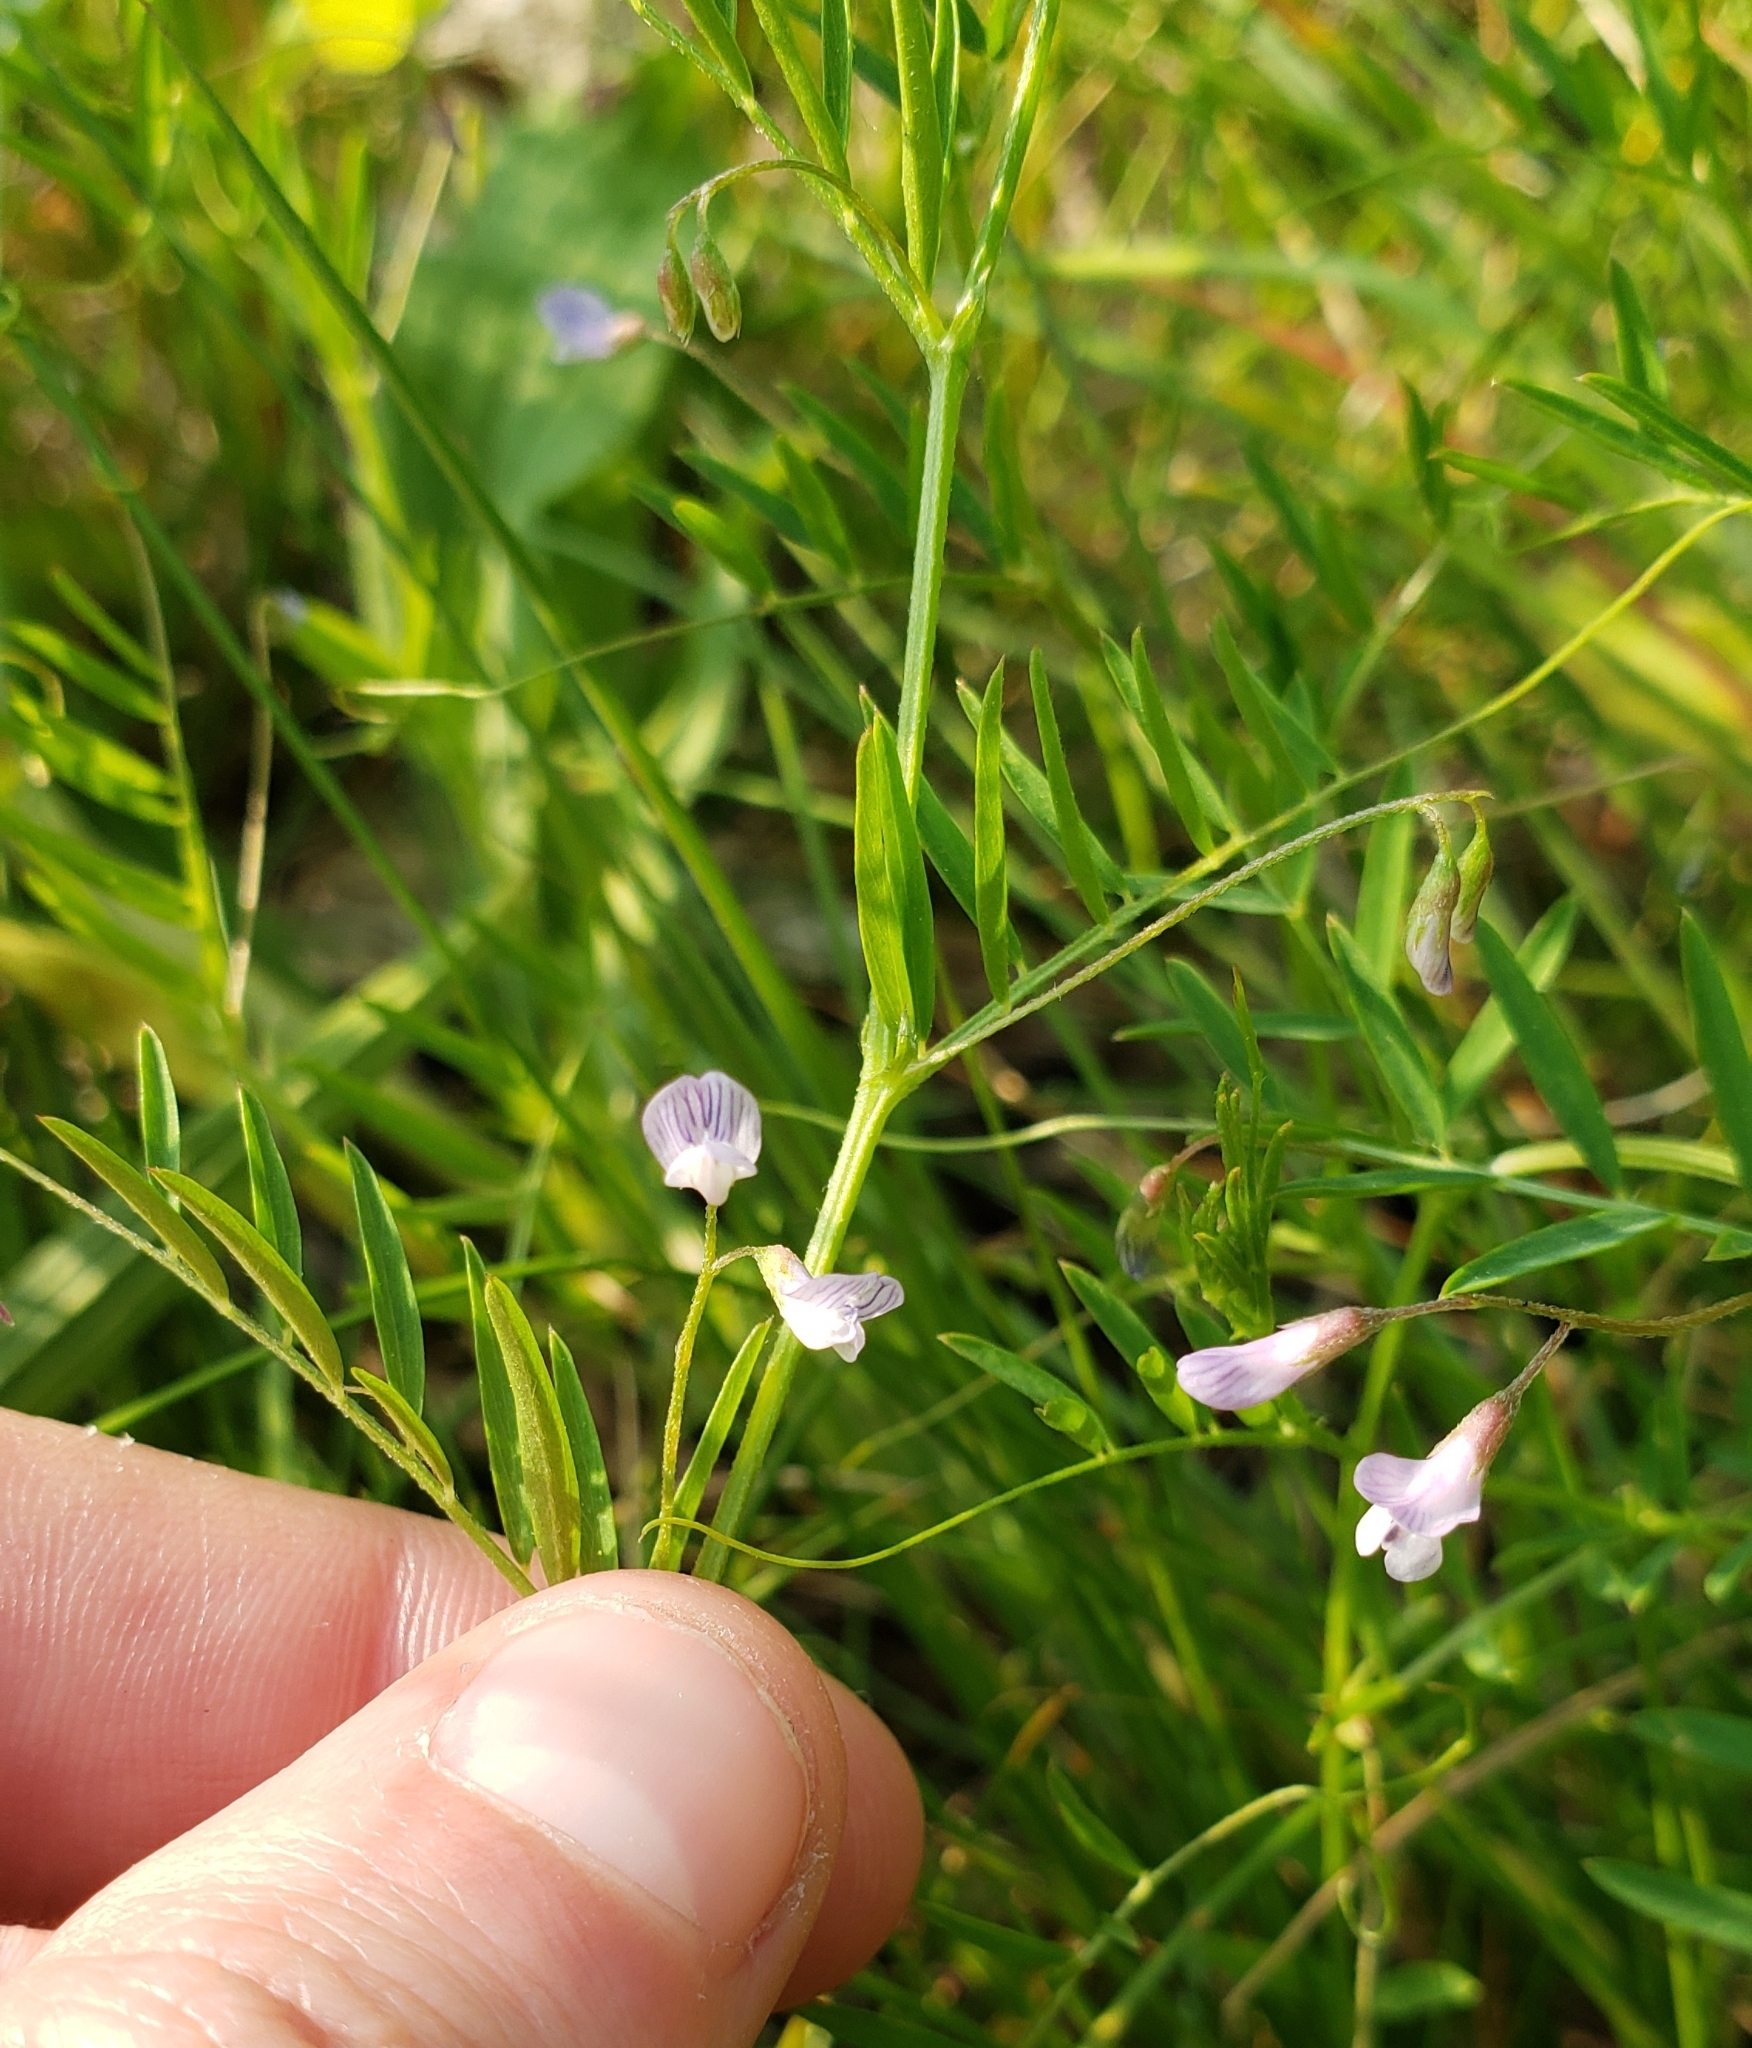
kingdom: Plantae
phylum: Tracheophyta
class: Magnoliopsida
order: Fabales
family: Fabaceae
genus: Vicia
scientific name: Vicia tetrasperma
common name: Smooth tare
